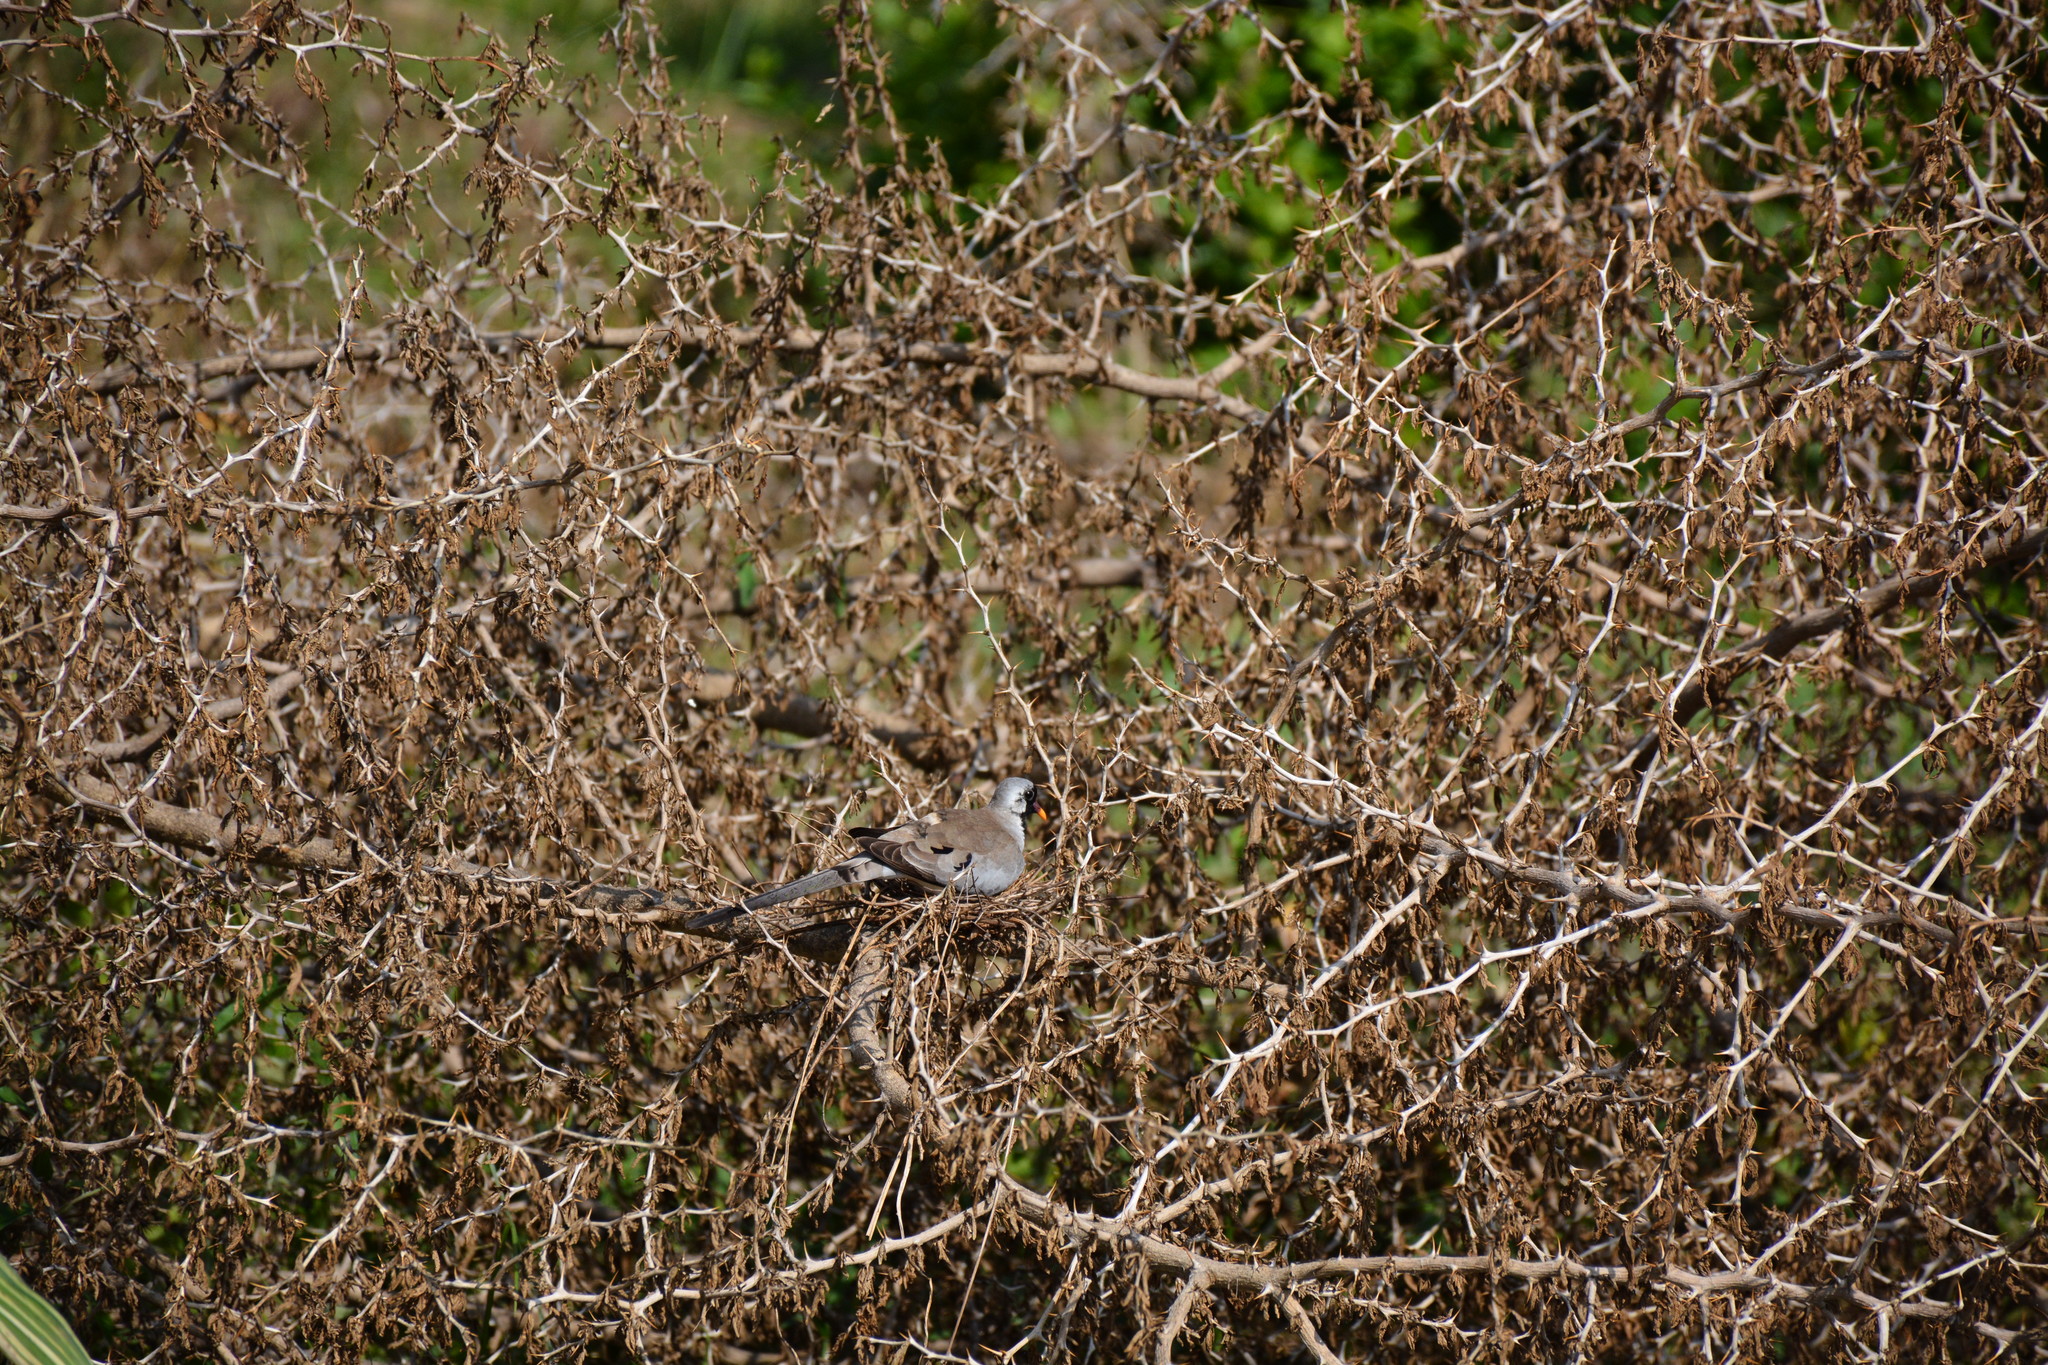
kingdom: Animalia
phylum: Chordata
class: Aves
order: Columbiformes
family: Columbidae
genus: Oena
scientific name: Oena capensis
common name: Namaqua dove
